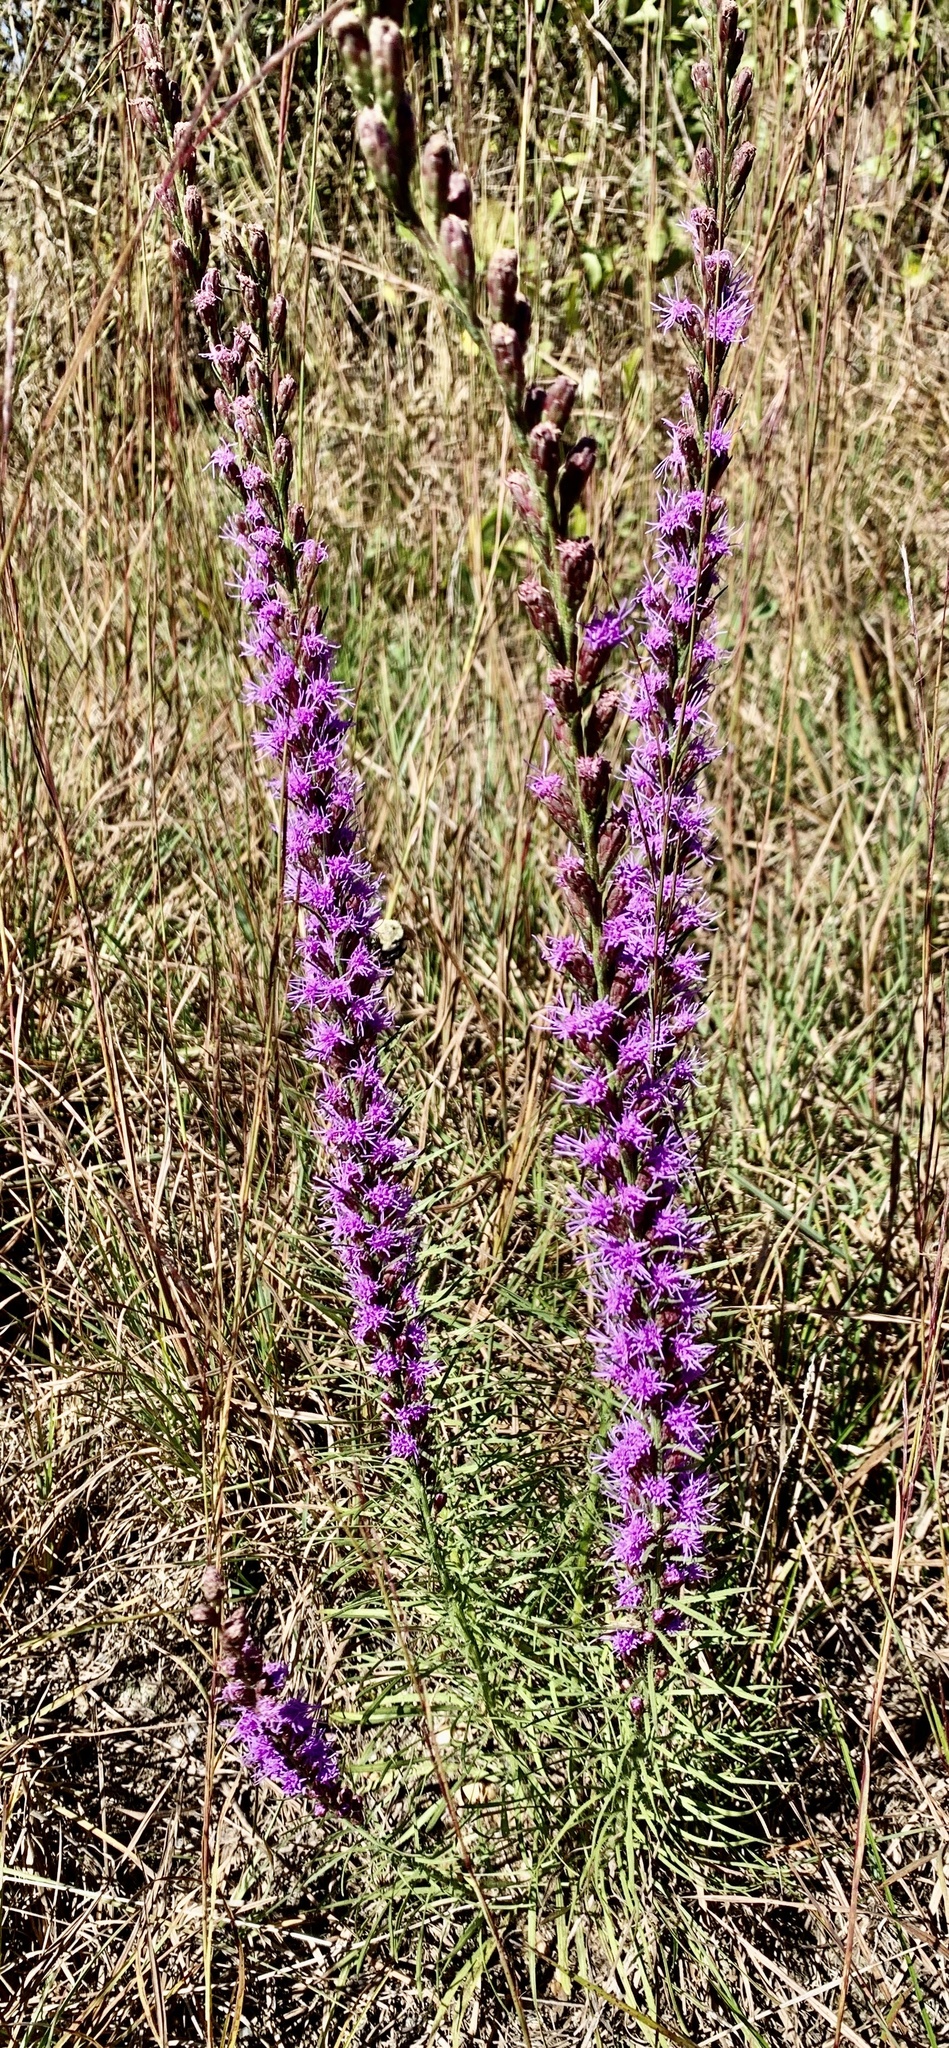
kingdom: Plantae
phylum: Tracheophyta
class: Magnoliopsida
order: Asterales
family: Asteraceae
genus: Liatris
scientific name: Liatris pilosa
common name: Grass-leaf gayfeather
